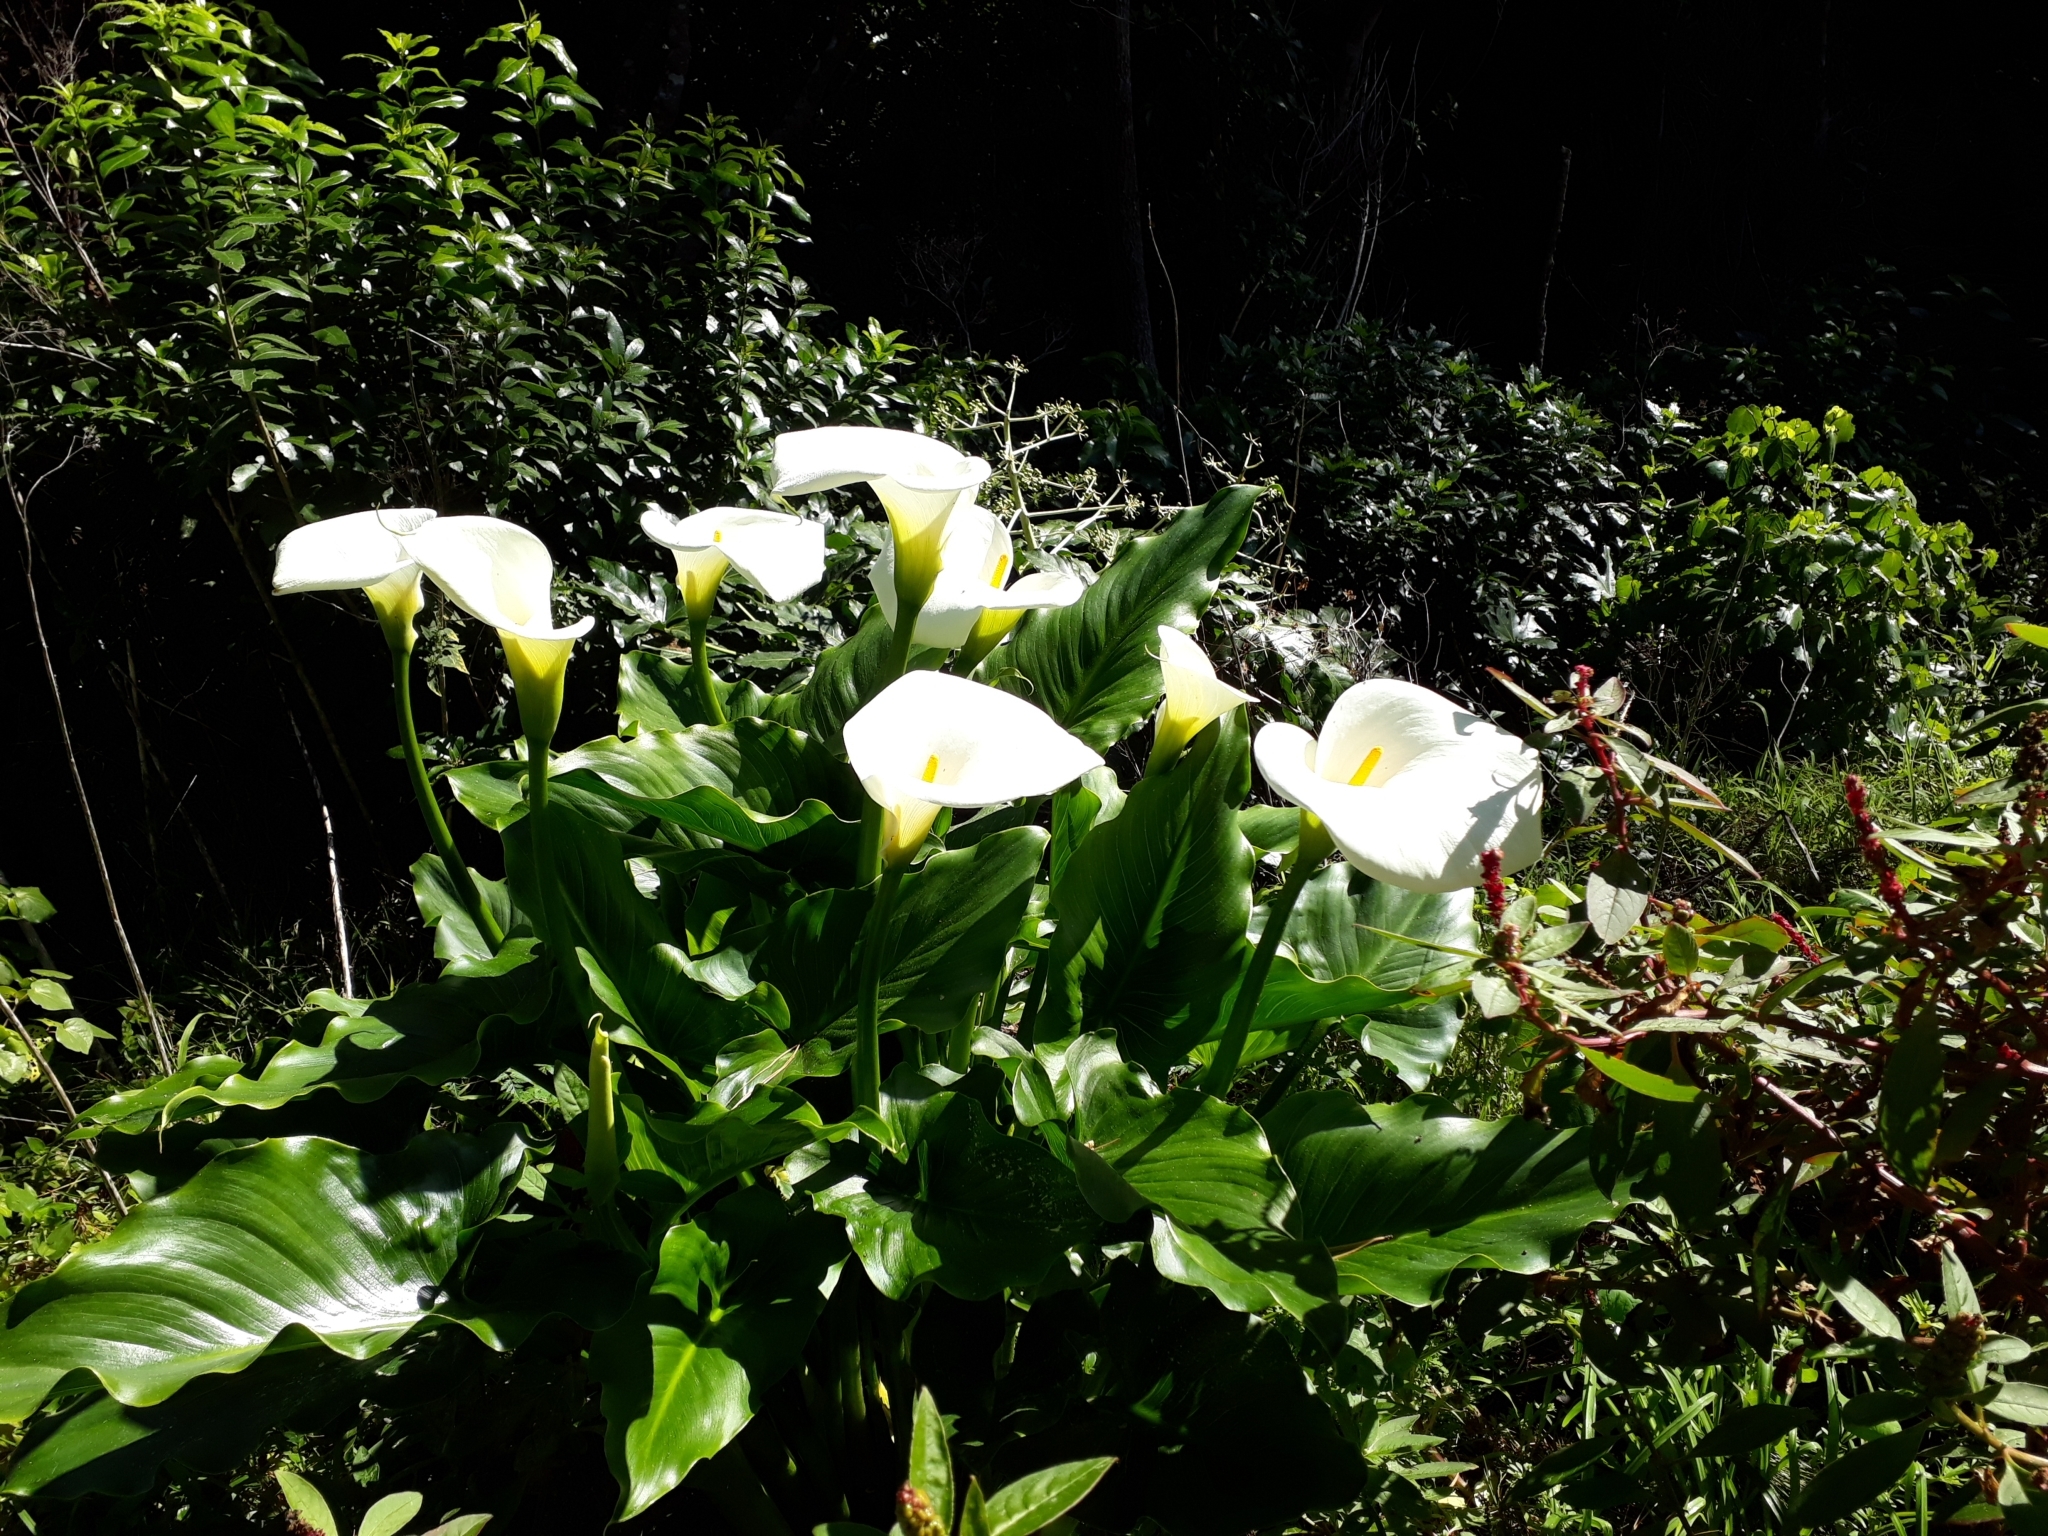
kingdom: Plantae
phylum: Tracheophyta
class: Liliopsida
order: Alismatales
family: Araceae
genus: Zantedeschia
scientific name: Zantedeschia aethiopica
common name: Altar-lily
